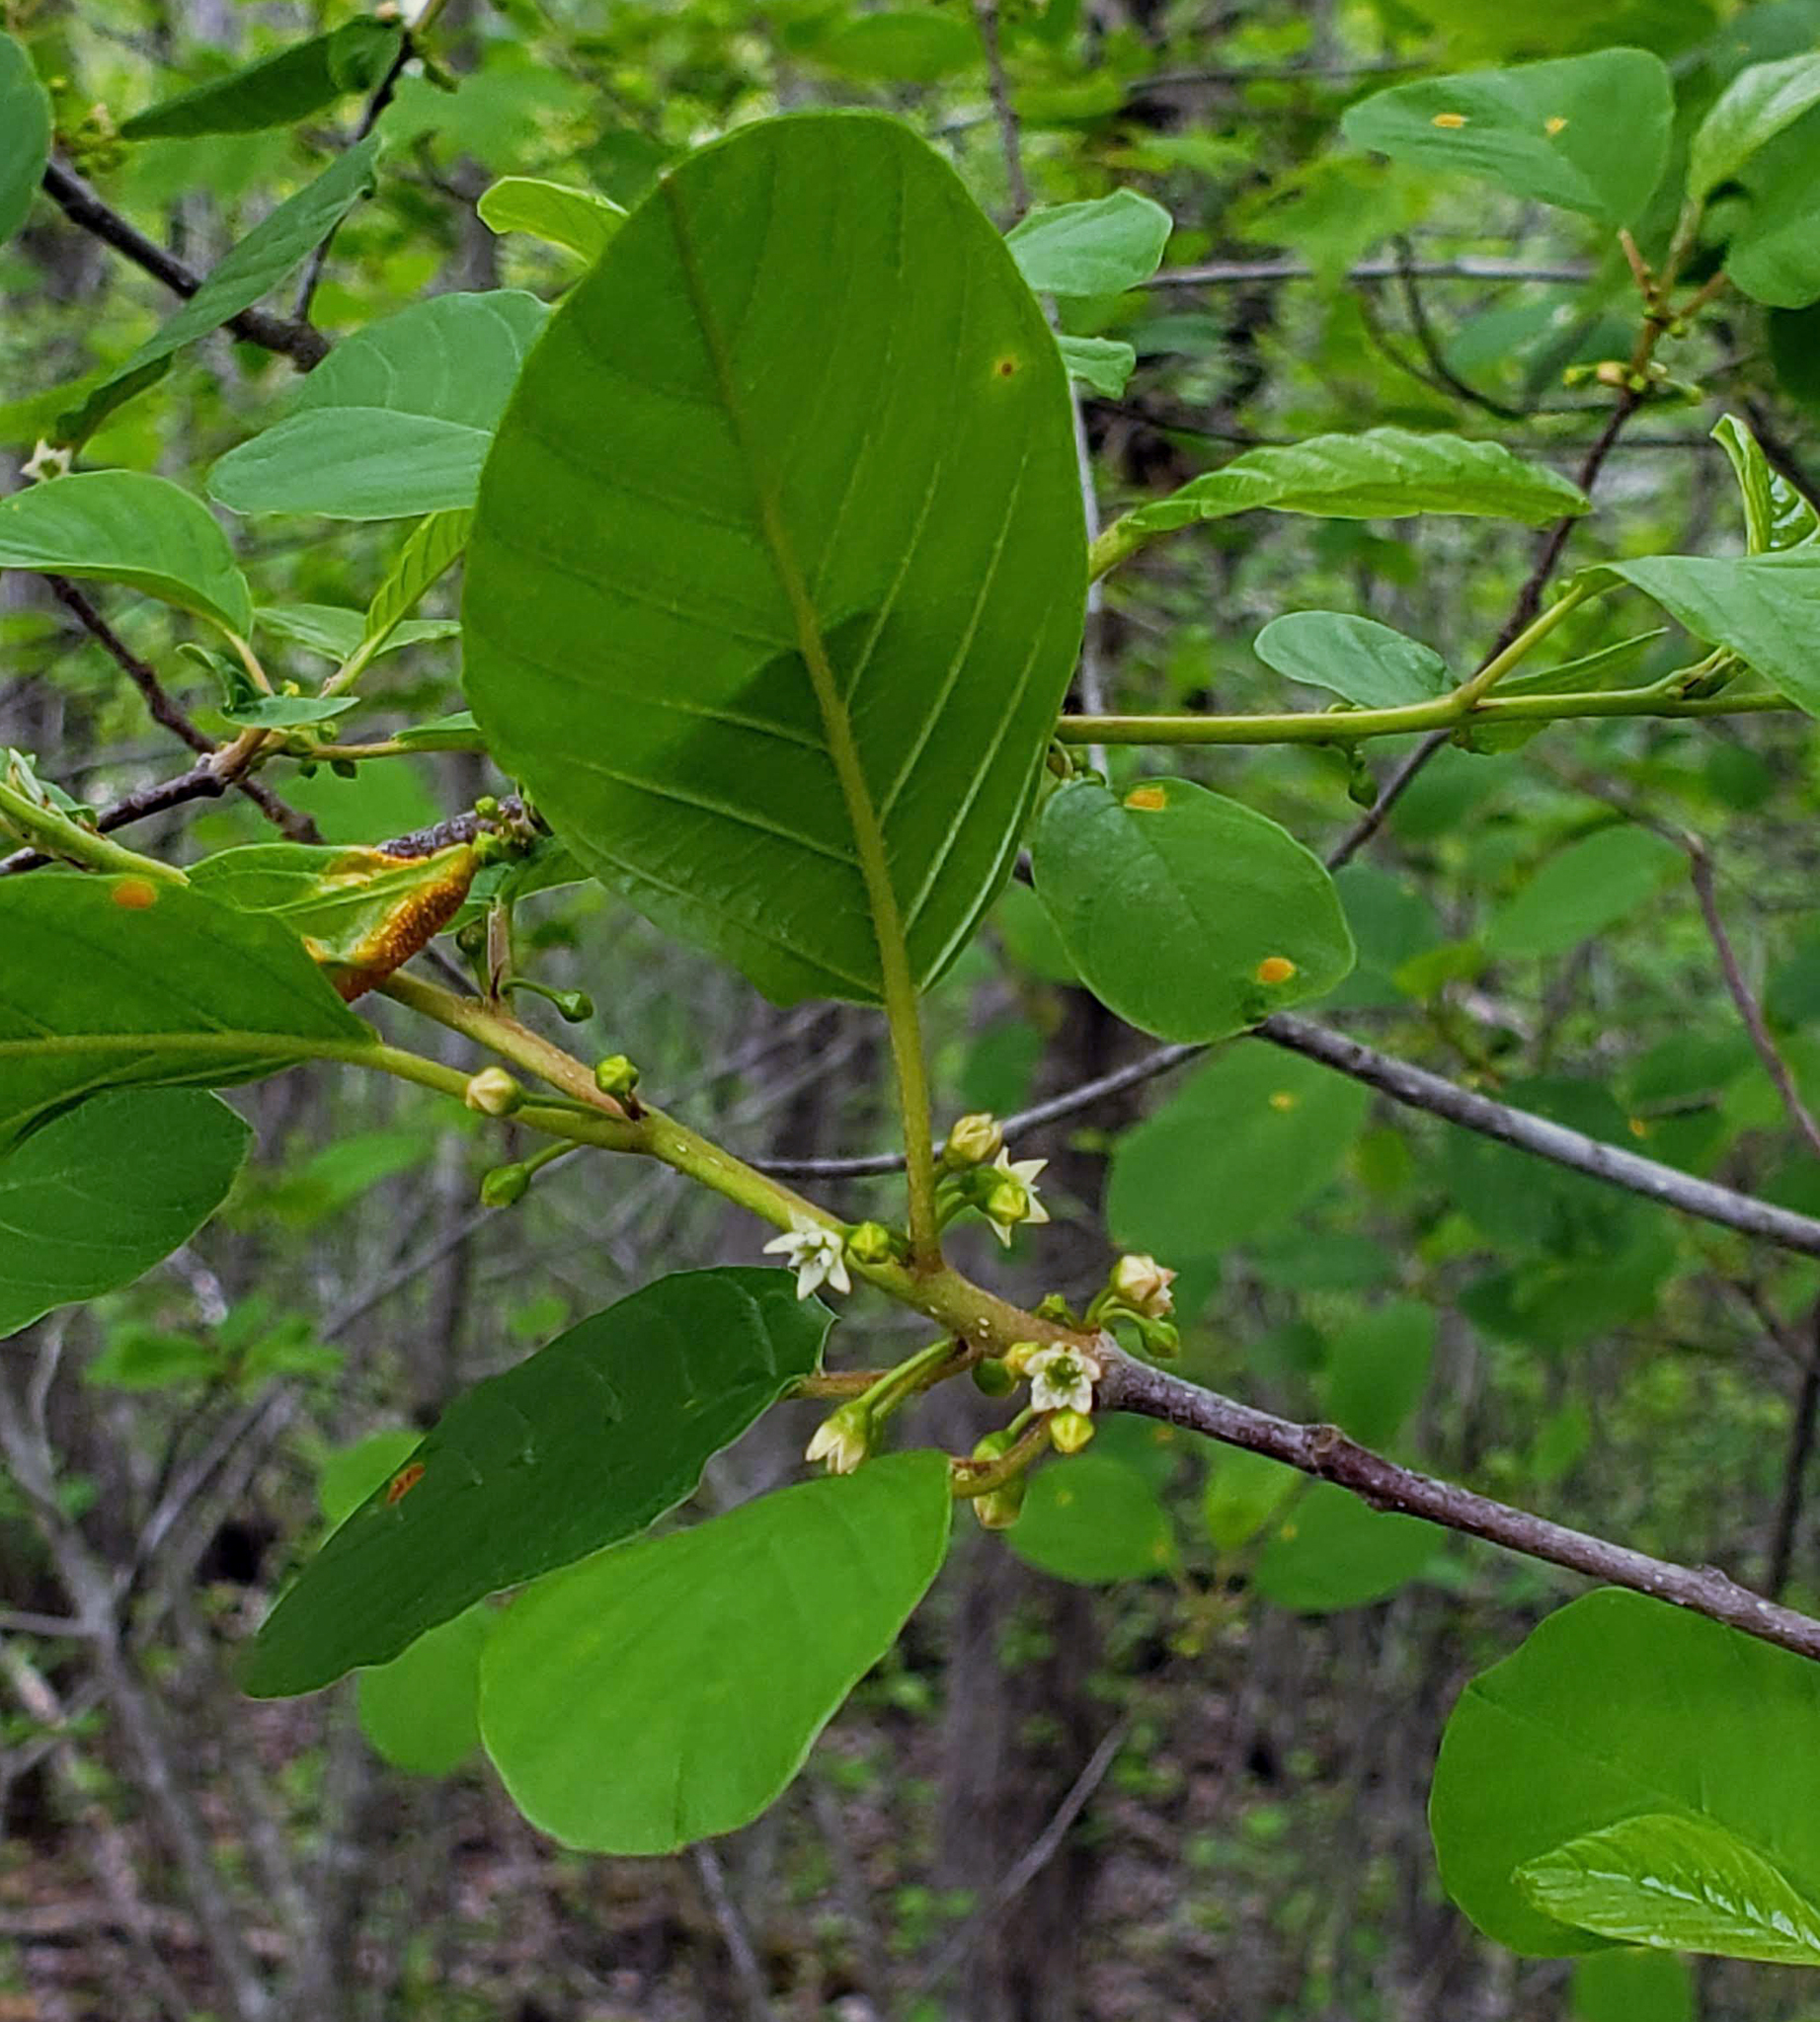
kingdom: Plantae
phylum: Tracheophyta
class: Magnoliopsida
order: Rosales
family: Rhamnaceae
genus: Frangula
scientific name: Frangula alnus
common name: Alder buckthorn
